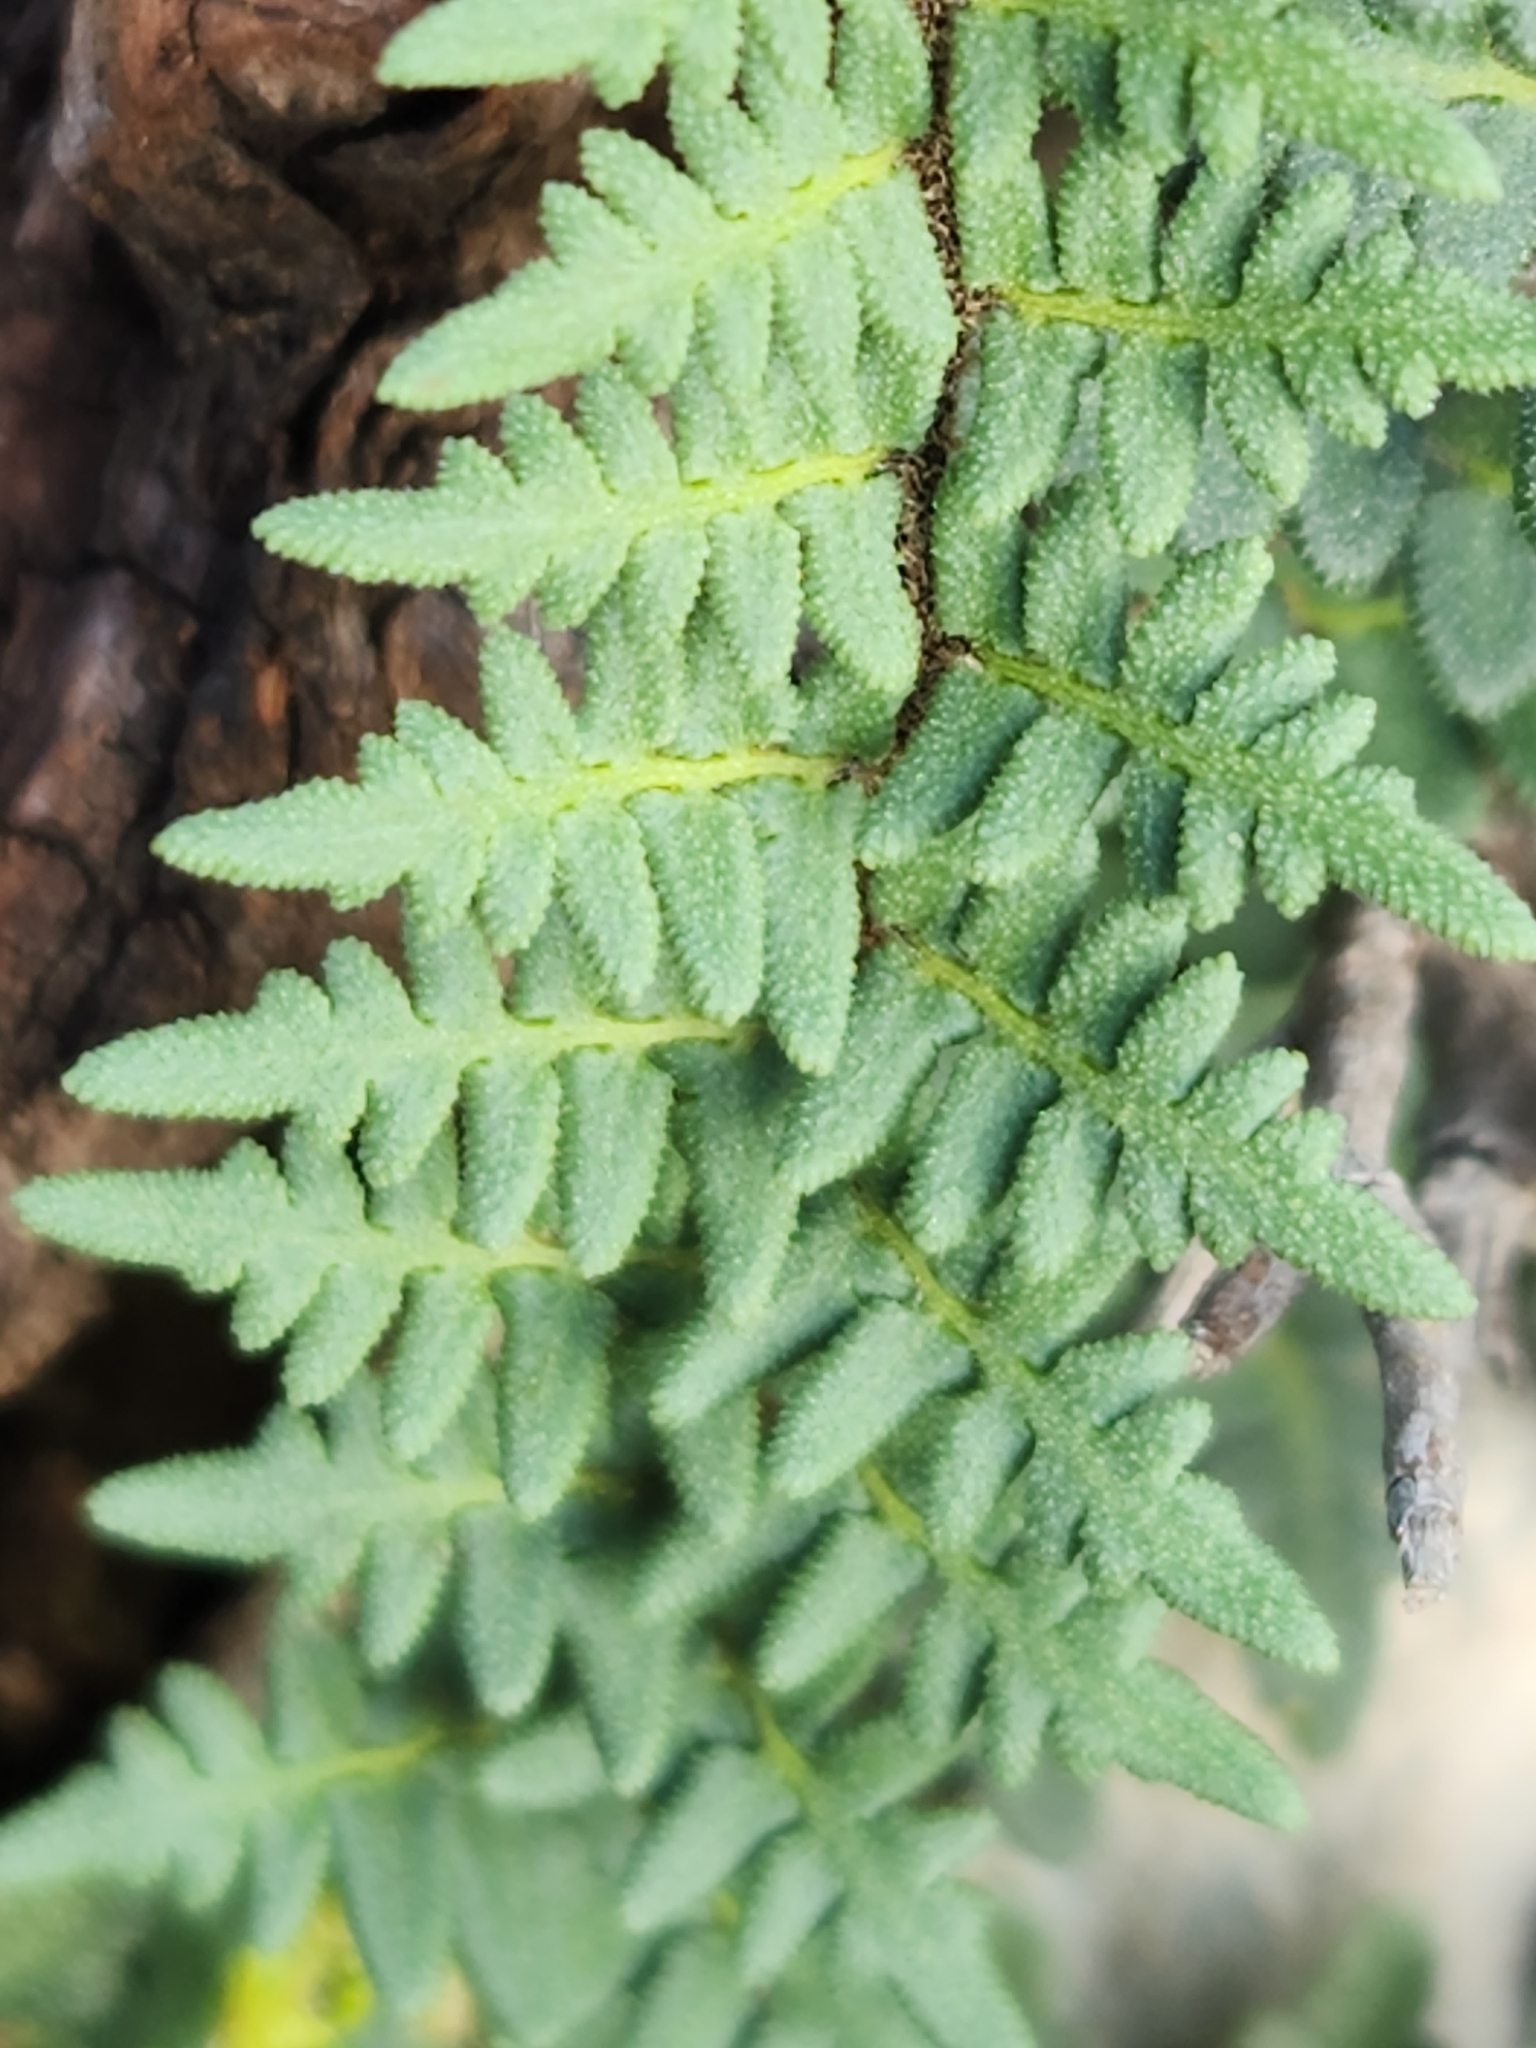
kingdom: Plantae
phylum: Tracheophyta
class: Polypodiopsida
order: Polypodiales
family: Pteridaceae
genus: Myriopteris
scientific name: Myriopteris scabra
